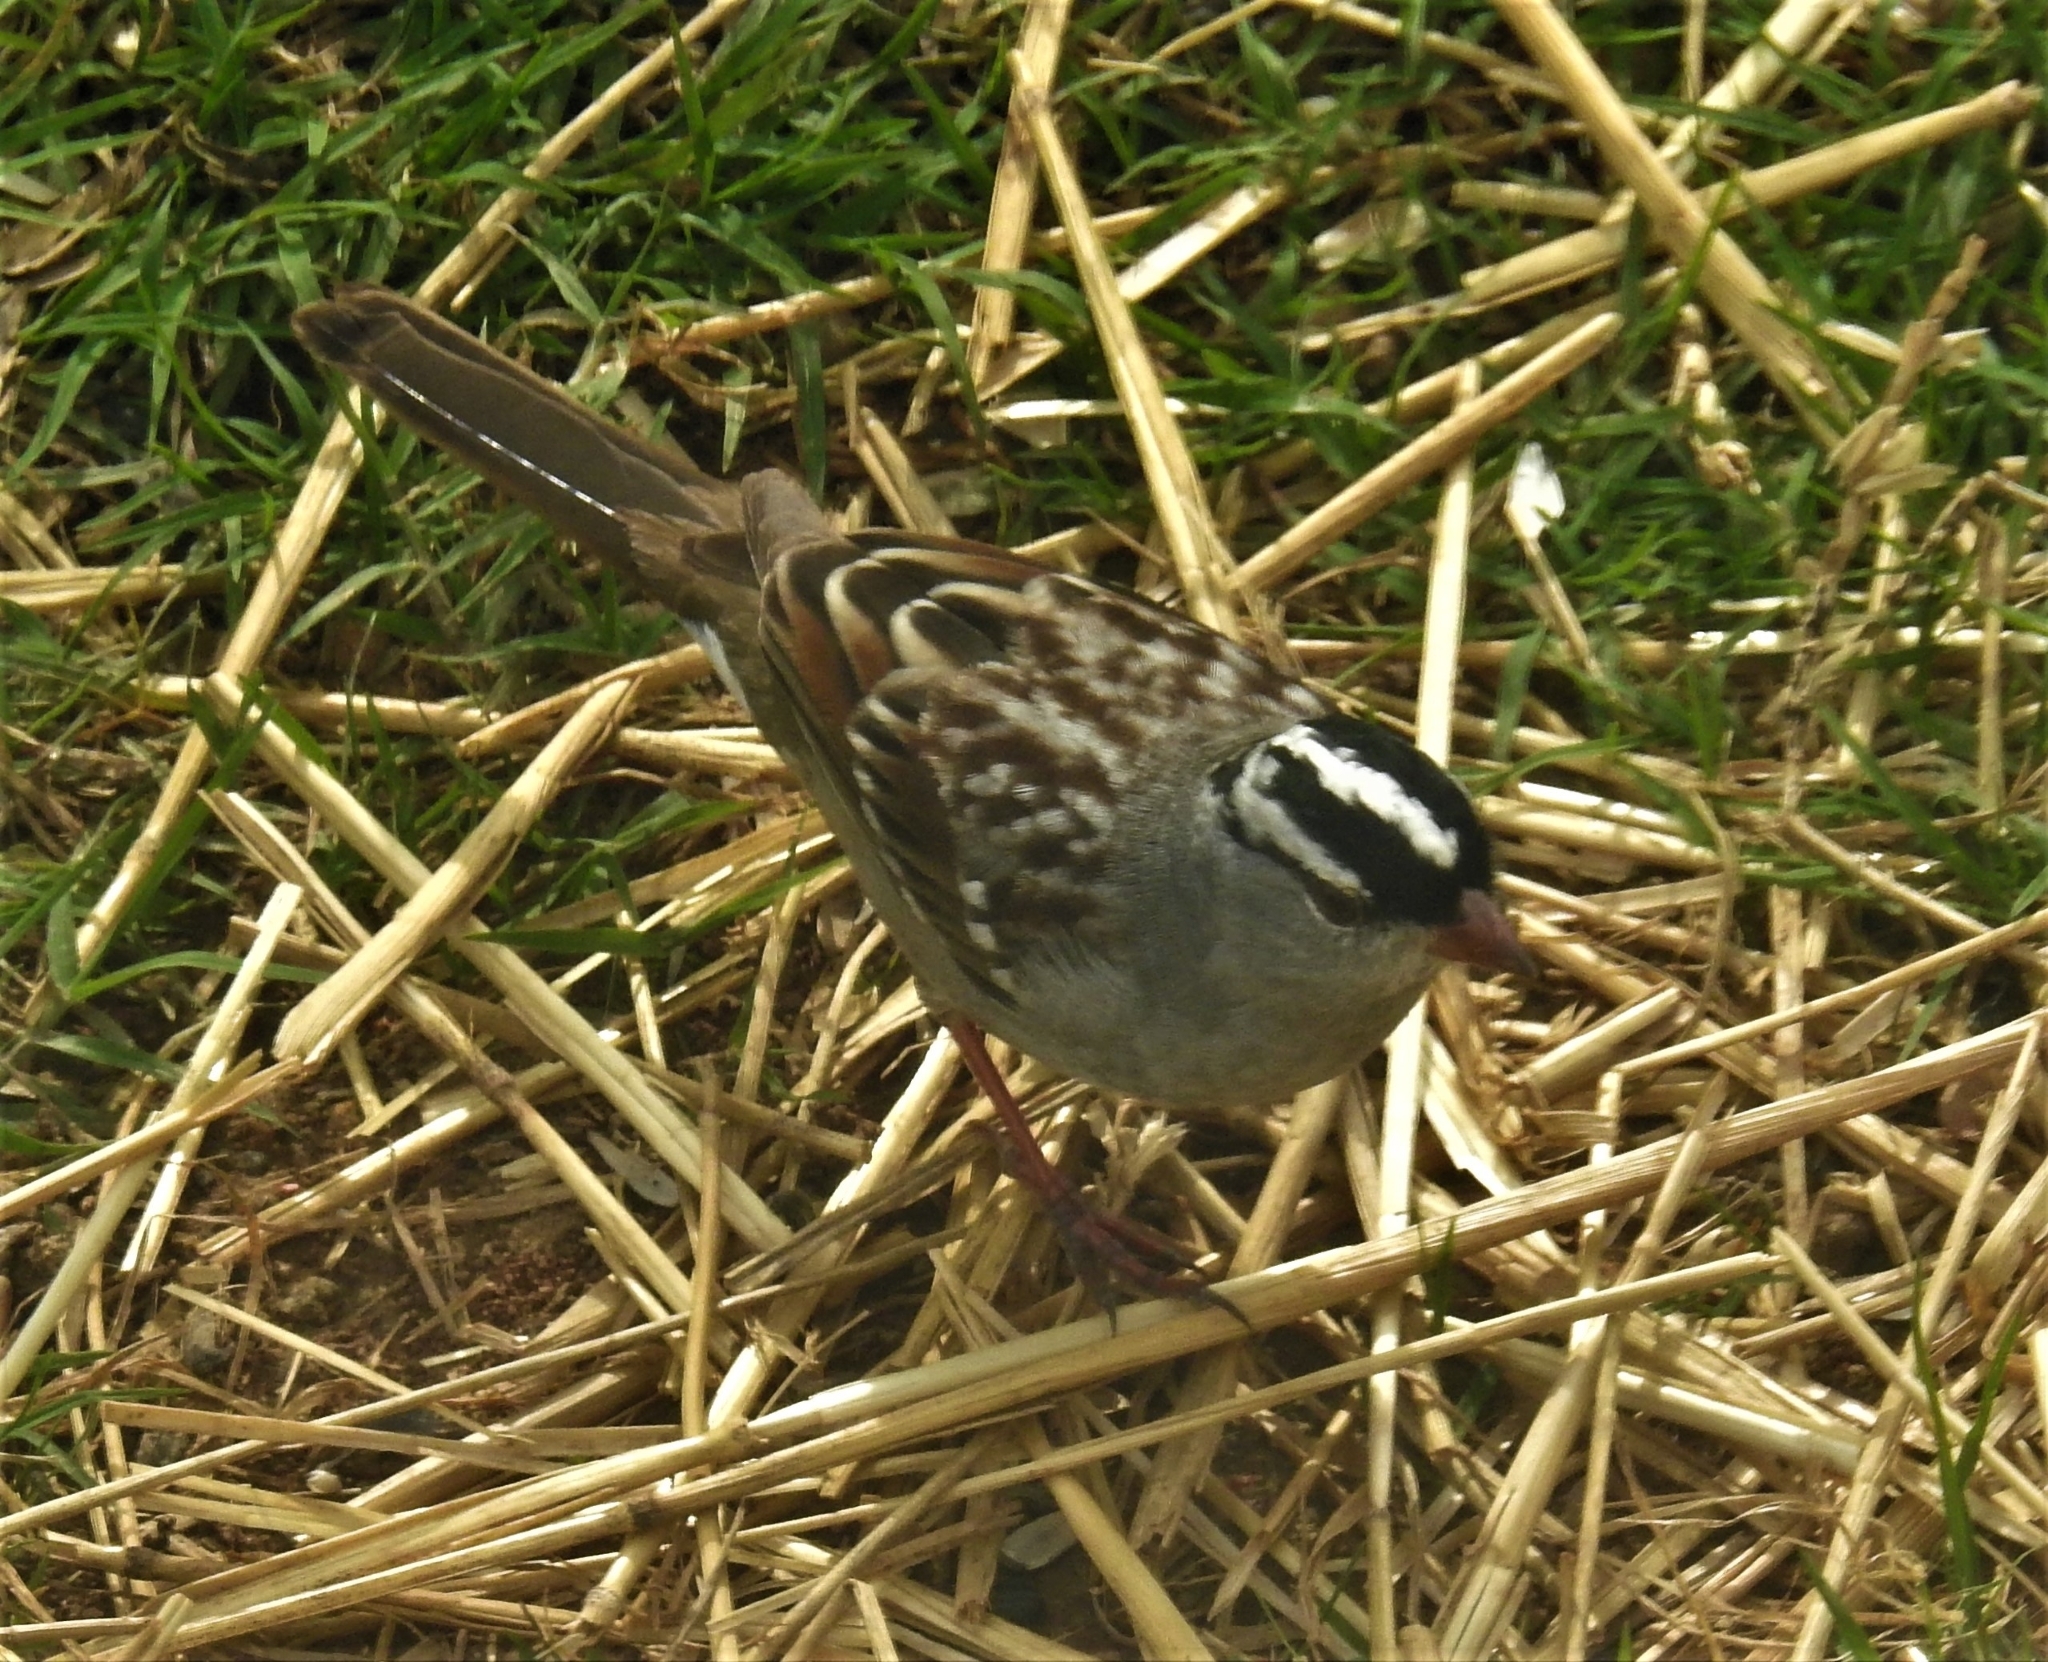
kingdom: Animalia
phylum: Chordata
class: Aves
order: Passeriformes
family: Passerellidae
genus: Zonotrichia
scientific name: Zonotrichia leucophrys
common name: White-crowned sparrow
